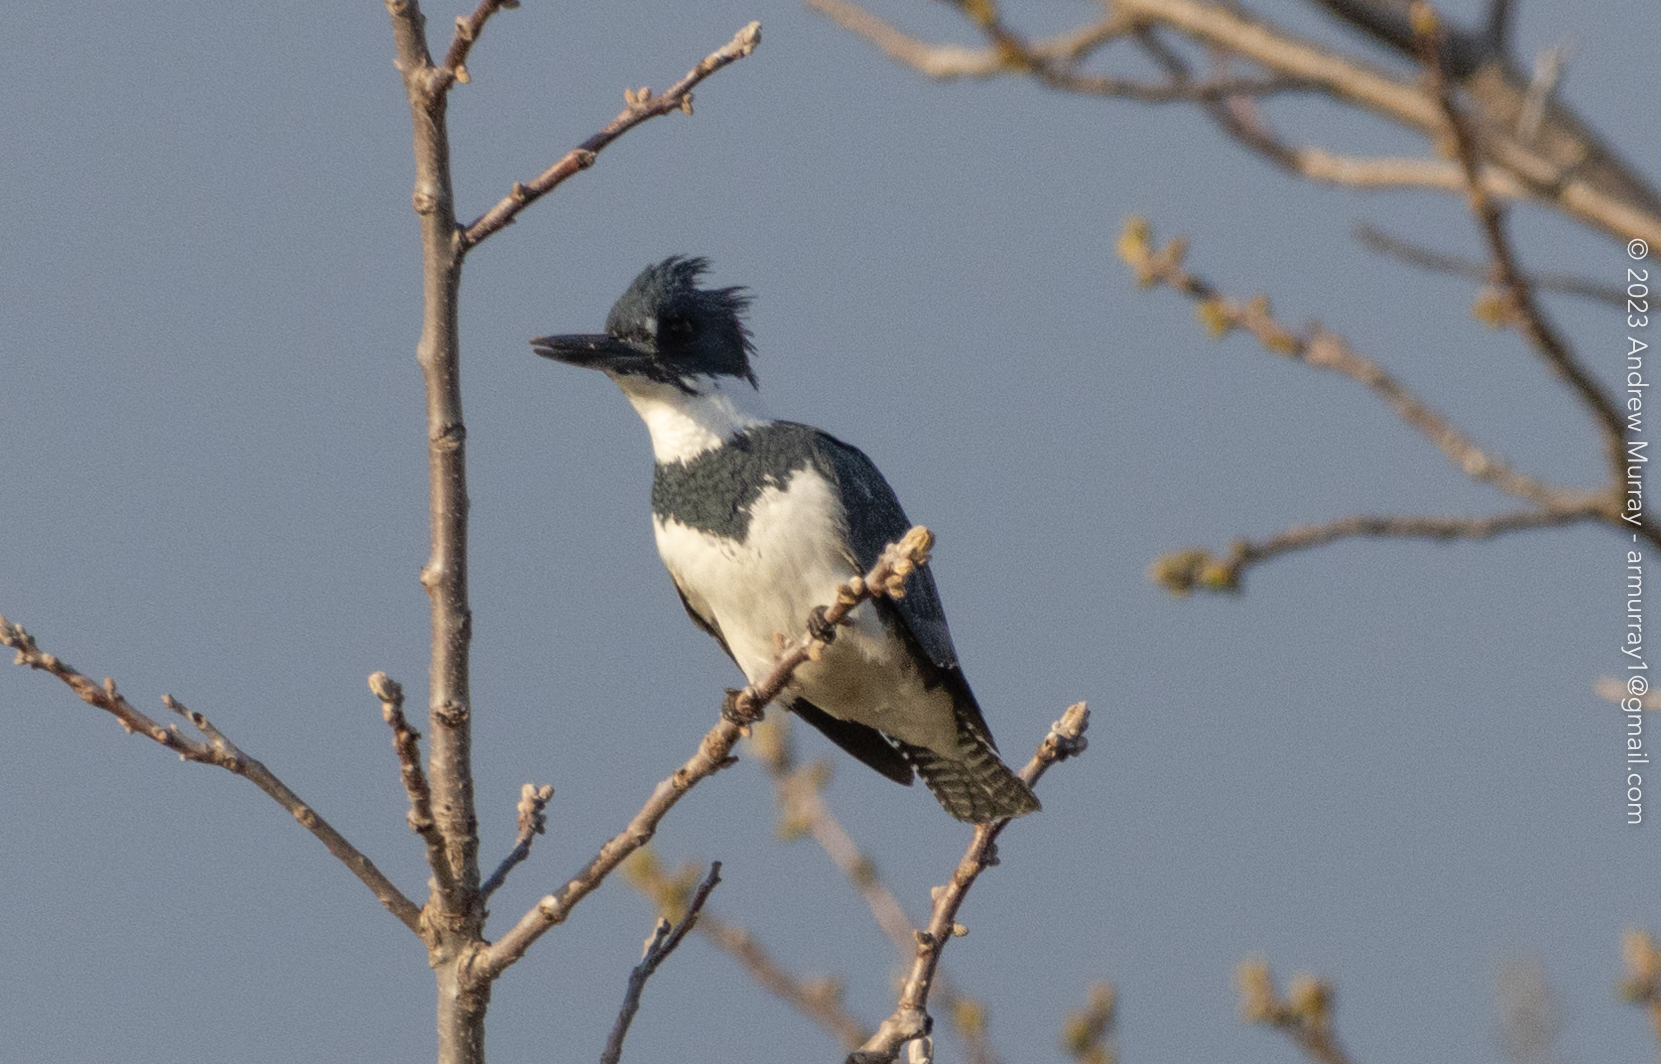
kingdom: Animalia
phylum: Chordata
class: Aves
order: Coraciiformes
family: Alcedinidae
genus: Megaceryle
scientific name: Megaceryle alcyon
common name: Belted kingfisher
